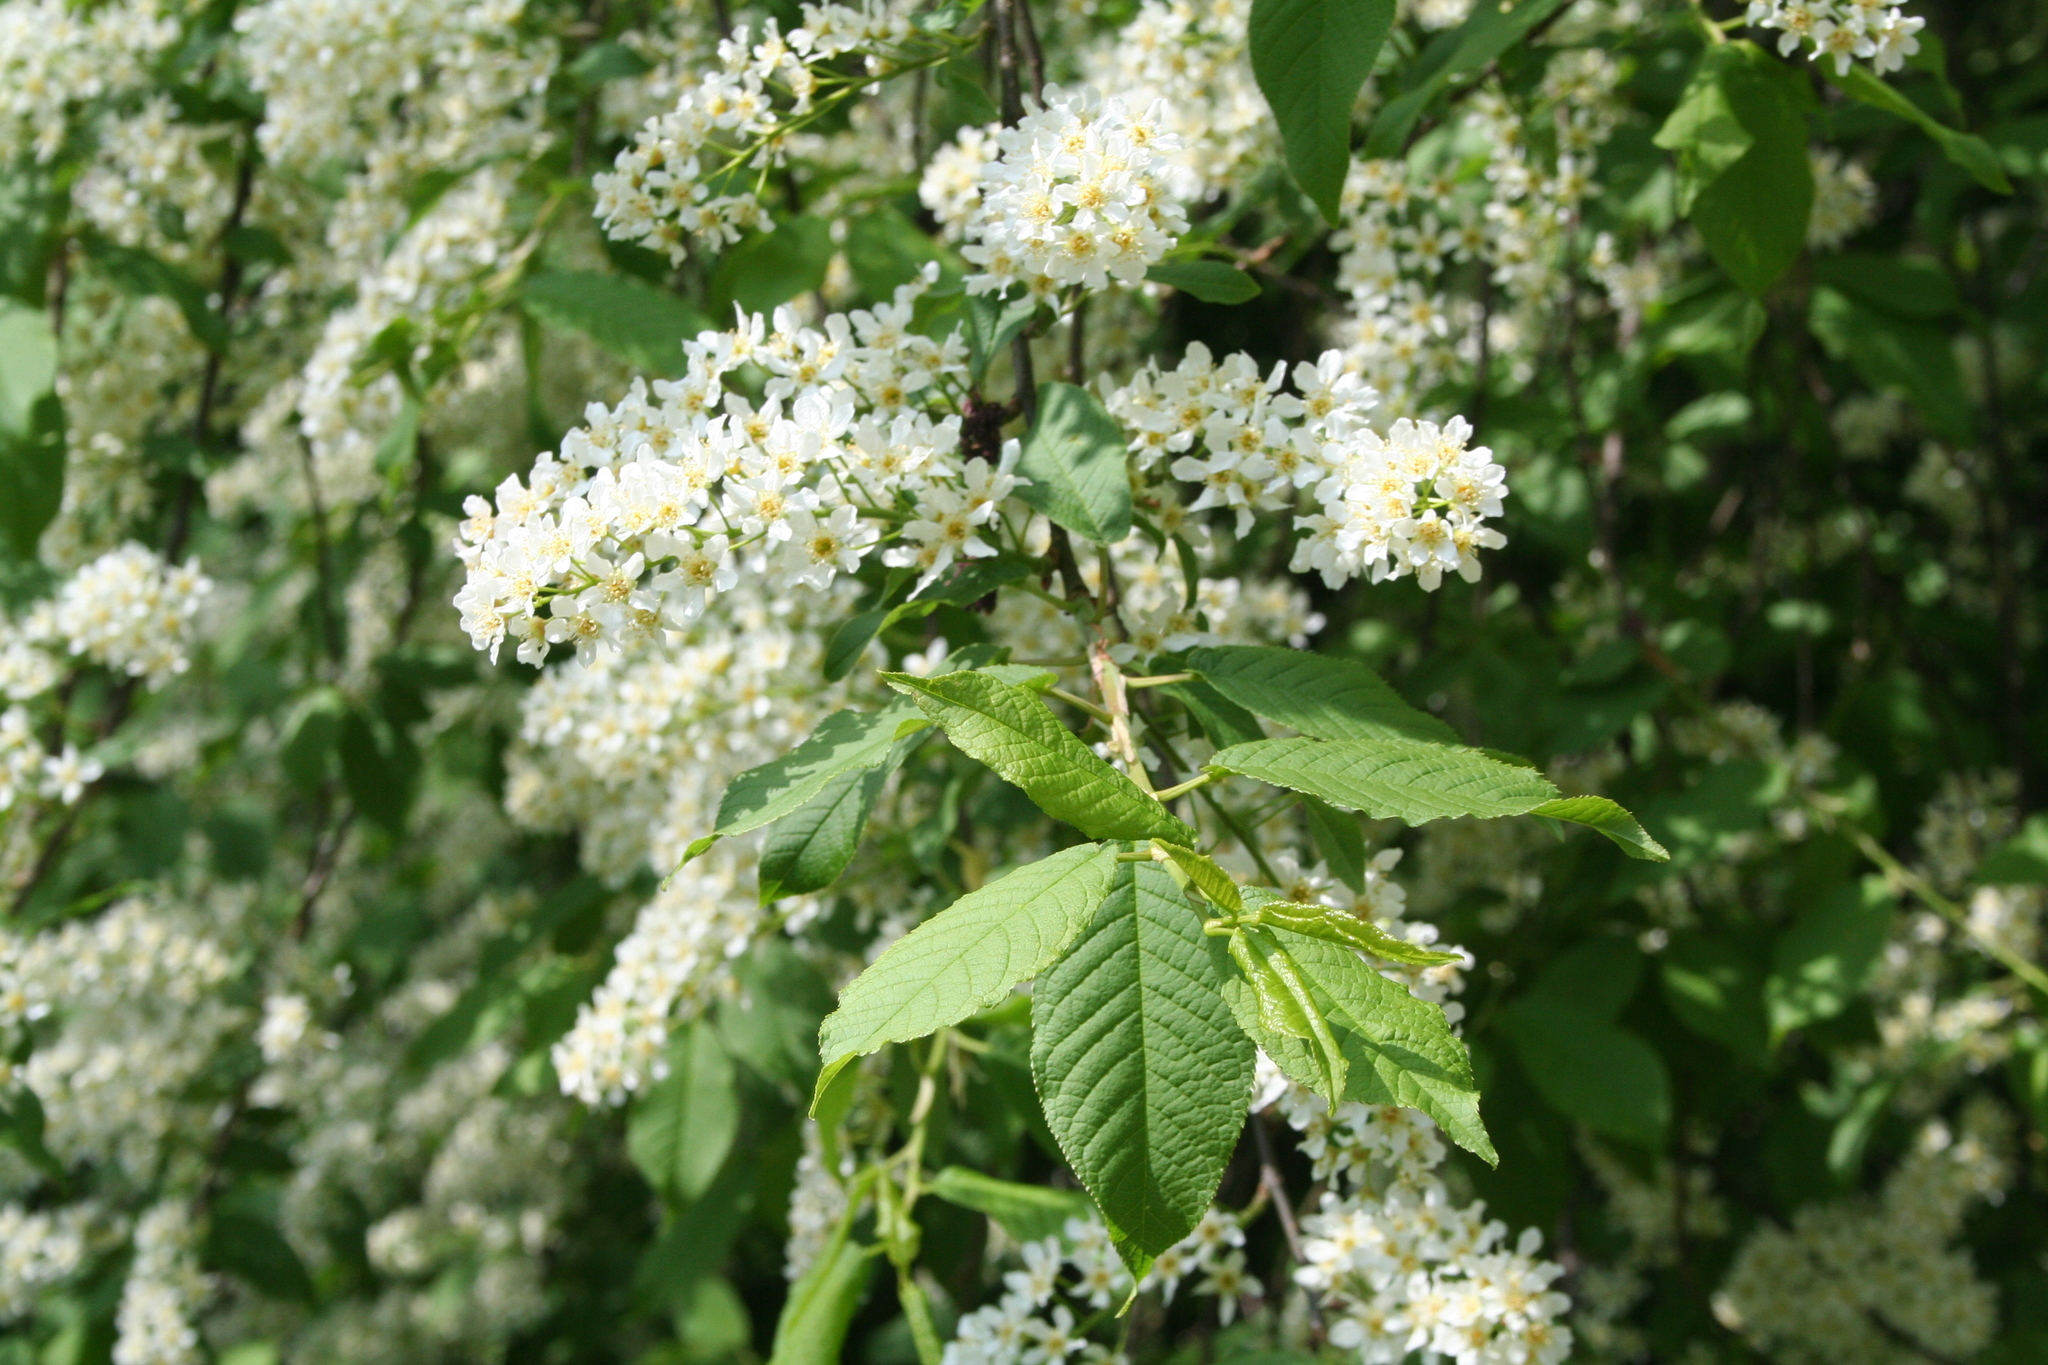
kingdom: Plantae
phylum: Tracheophyta
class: Magnoliopsida
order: Rosales
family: Rosaceae
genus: Prunus
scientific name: Prunus padus
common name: Bird cherry
